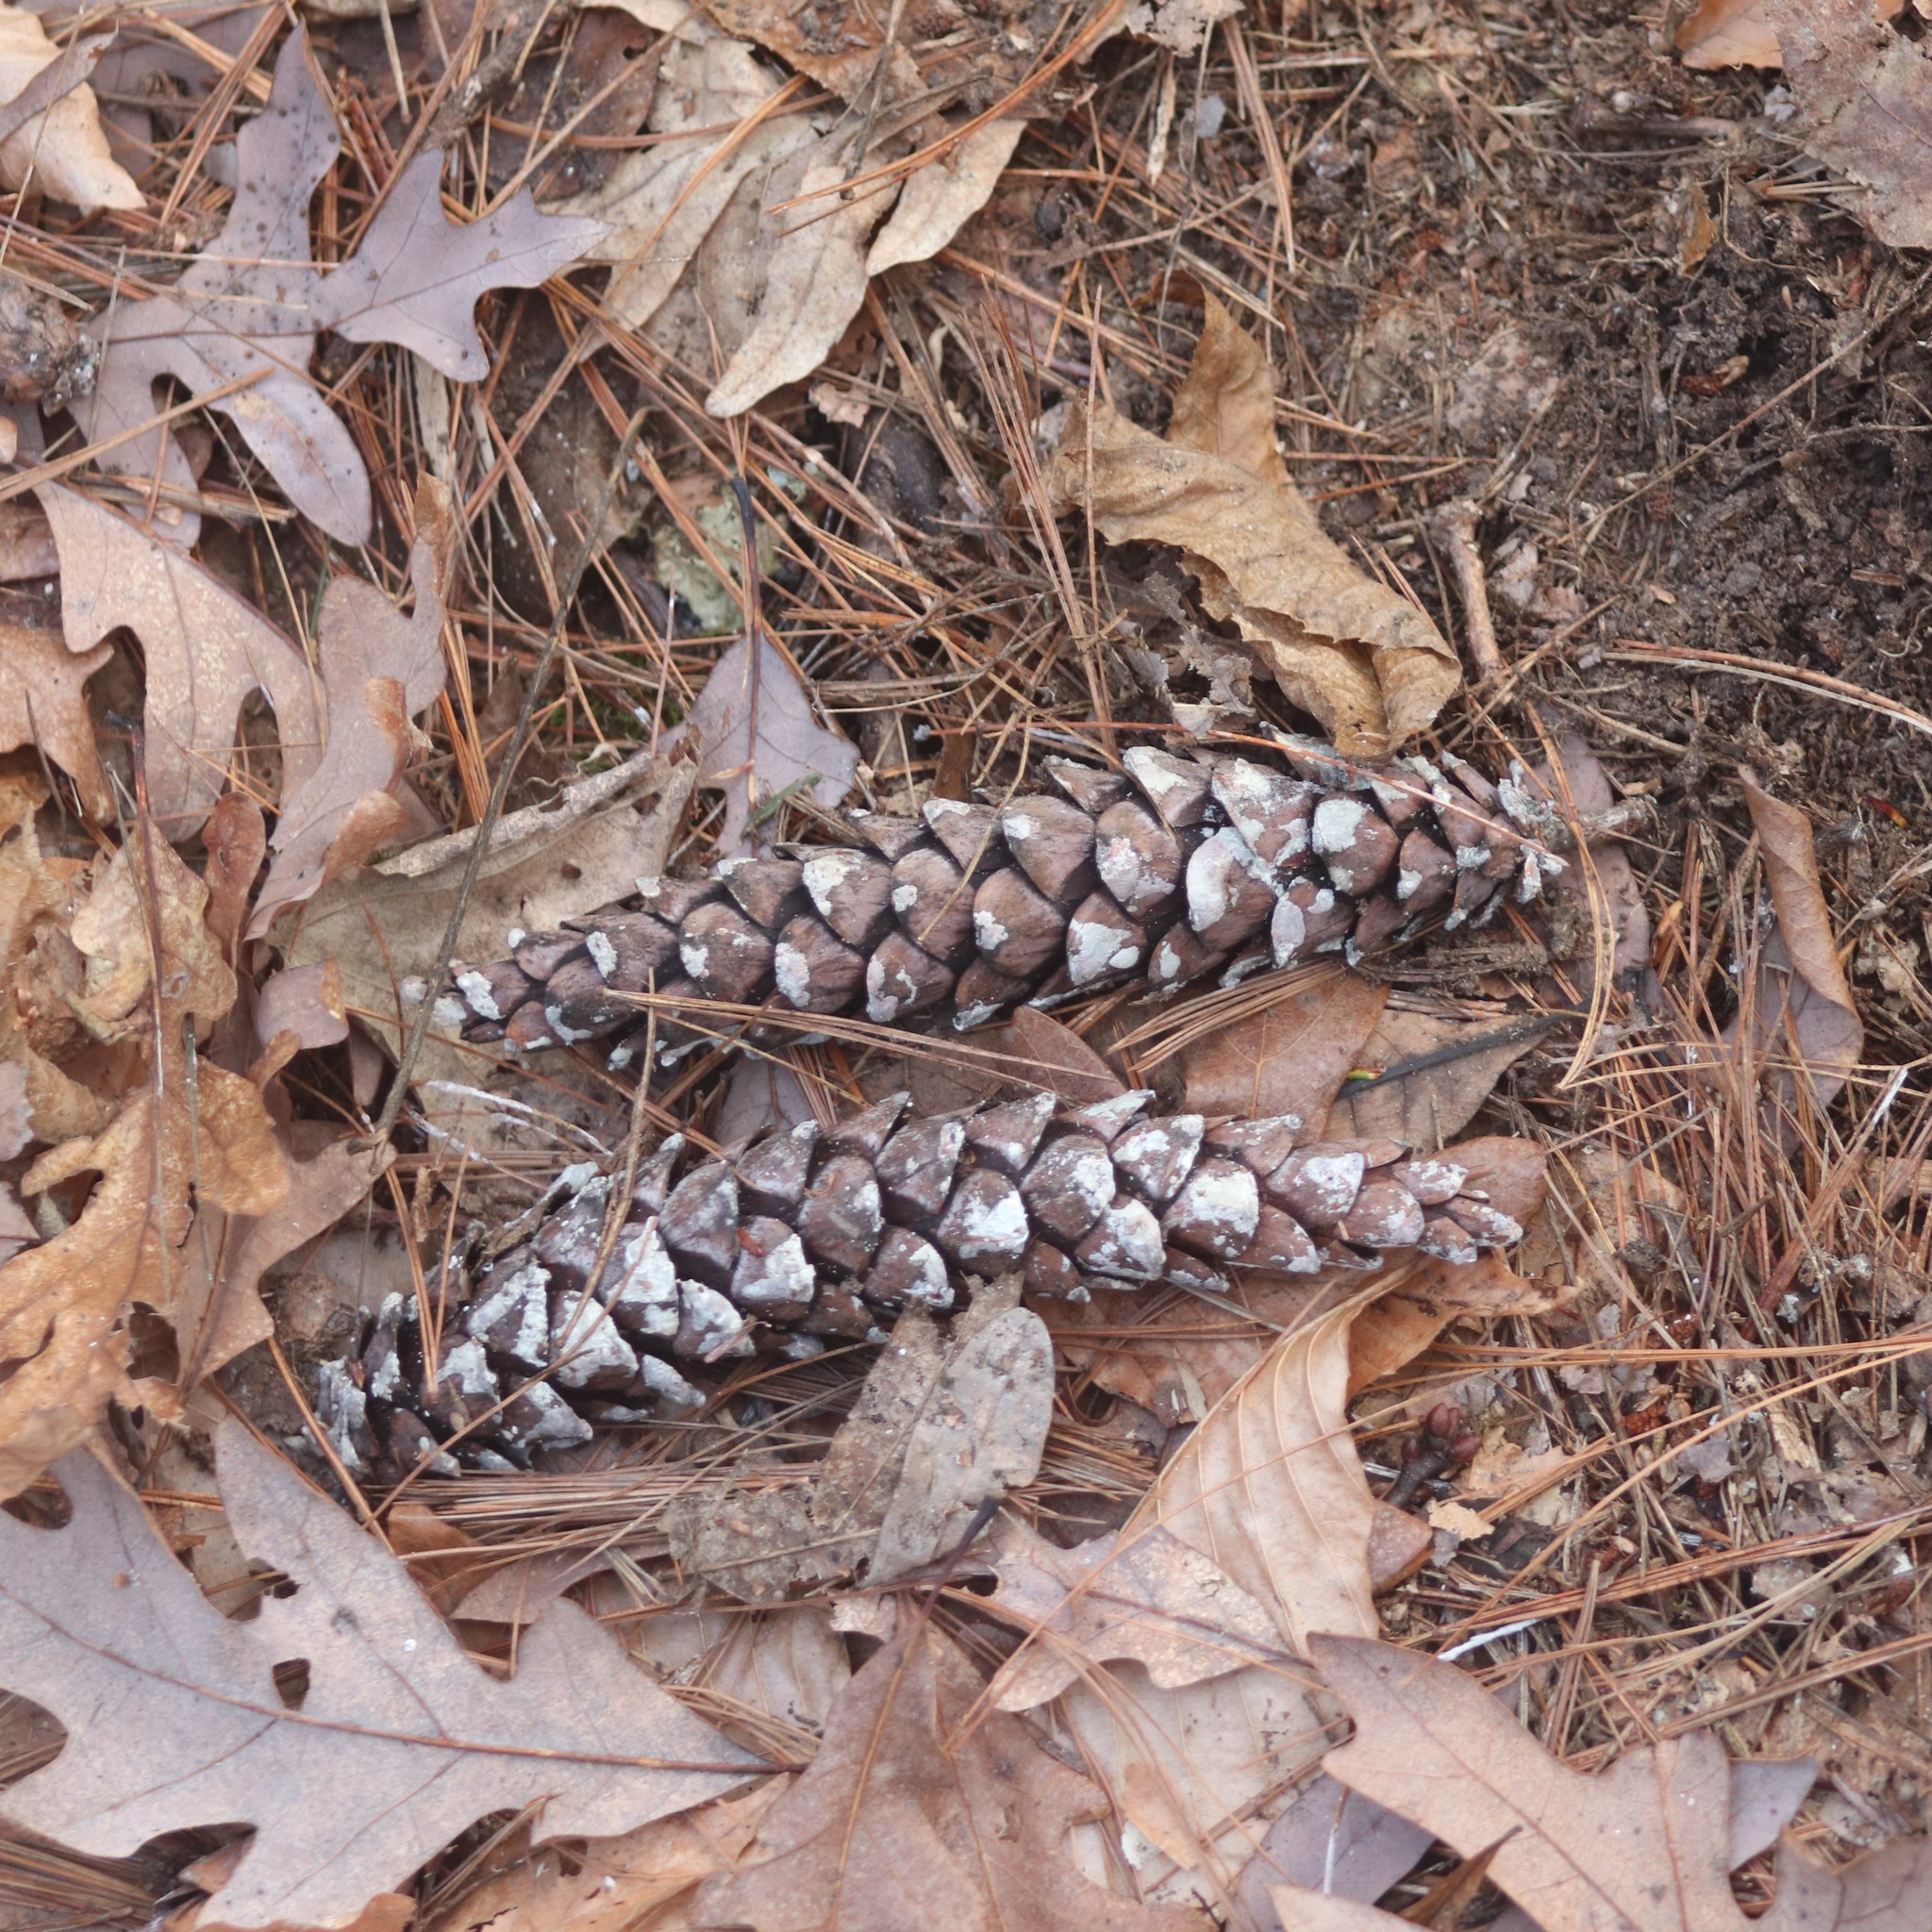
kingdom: Plantae
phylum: Tracheophyta
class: Pinopsida
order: Pinales
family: Pinaceae
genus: Pinus
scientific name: Pinus strobus
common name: Weymouth pine
